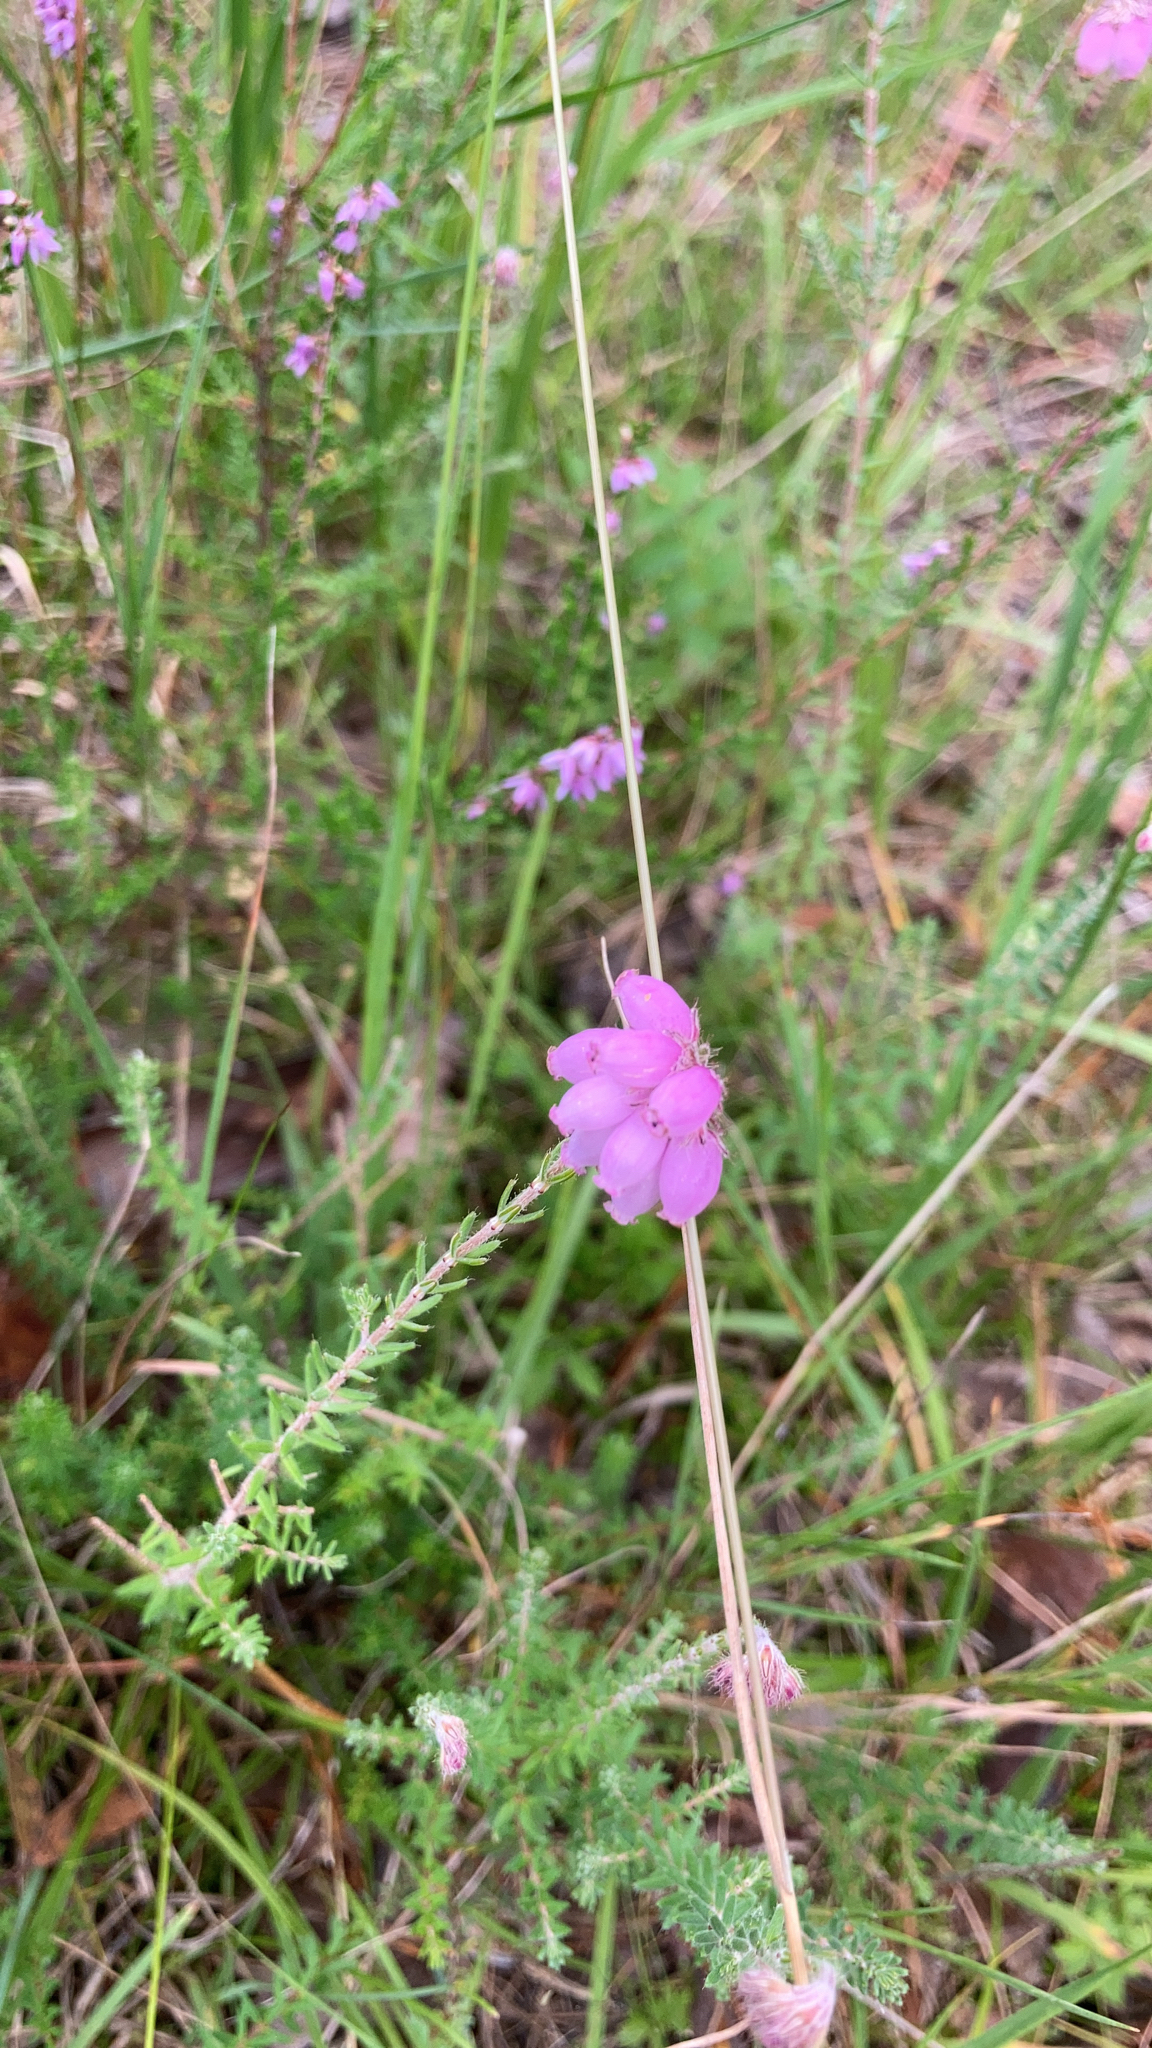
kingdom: Plantae
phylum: Tracheophyta
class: Magnoliopsida
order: Ericales
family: Ericaceae
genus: Erica
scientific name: Erica tetralix
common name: Cross-leaved heath
